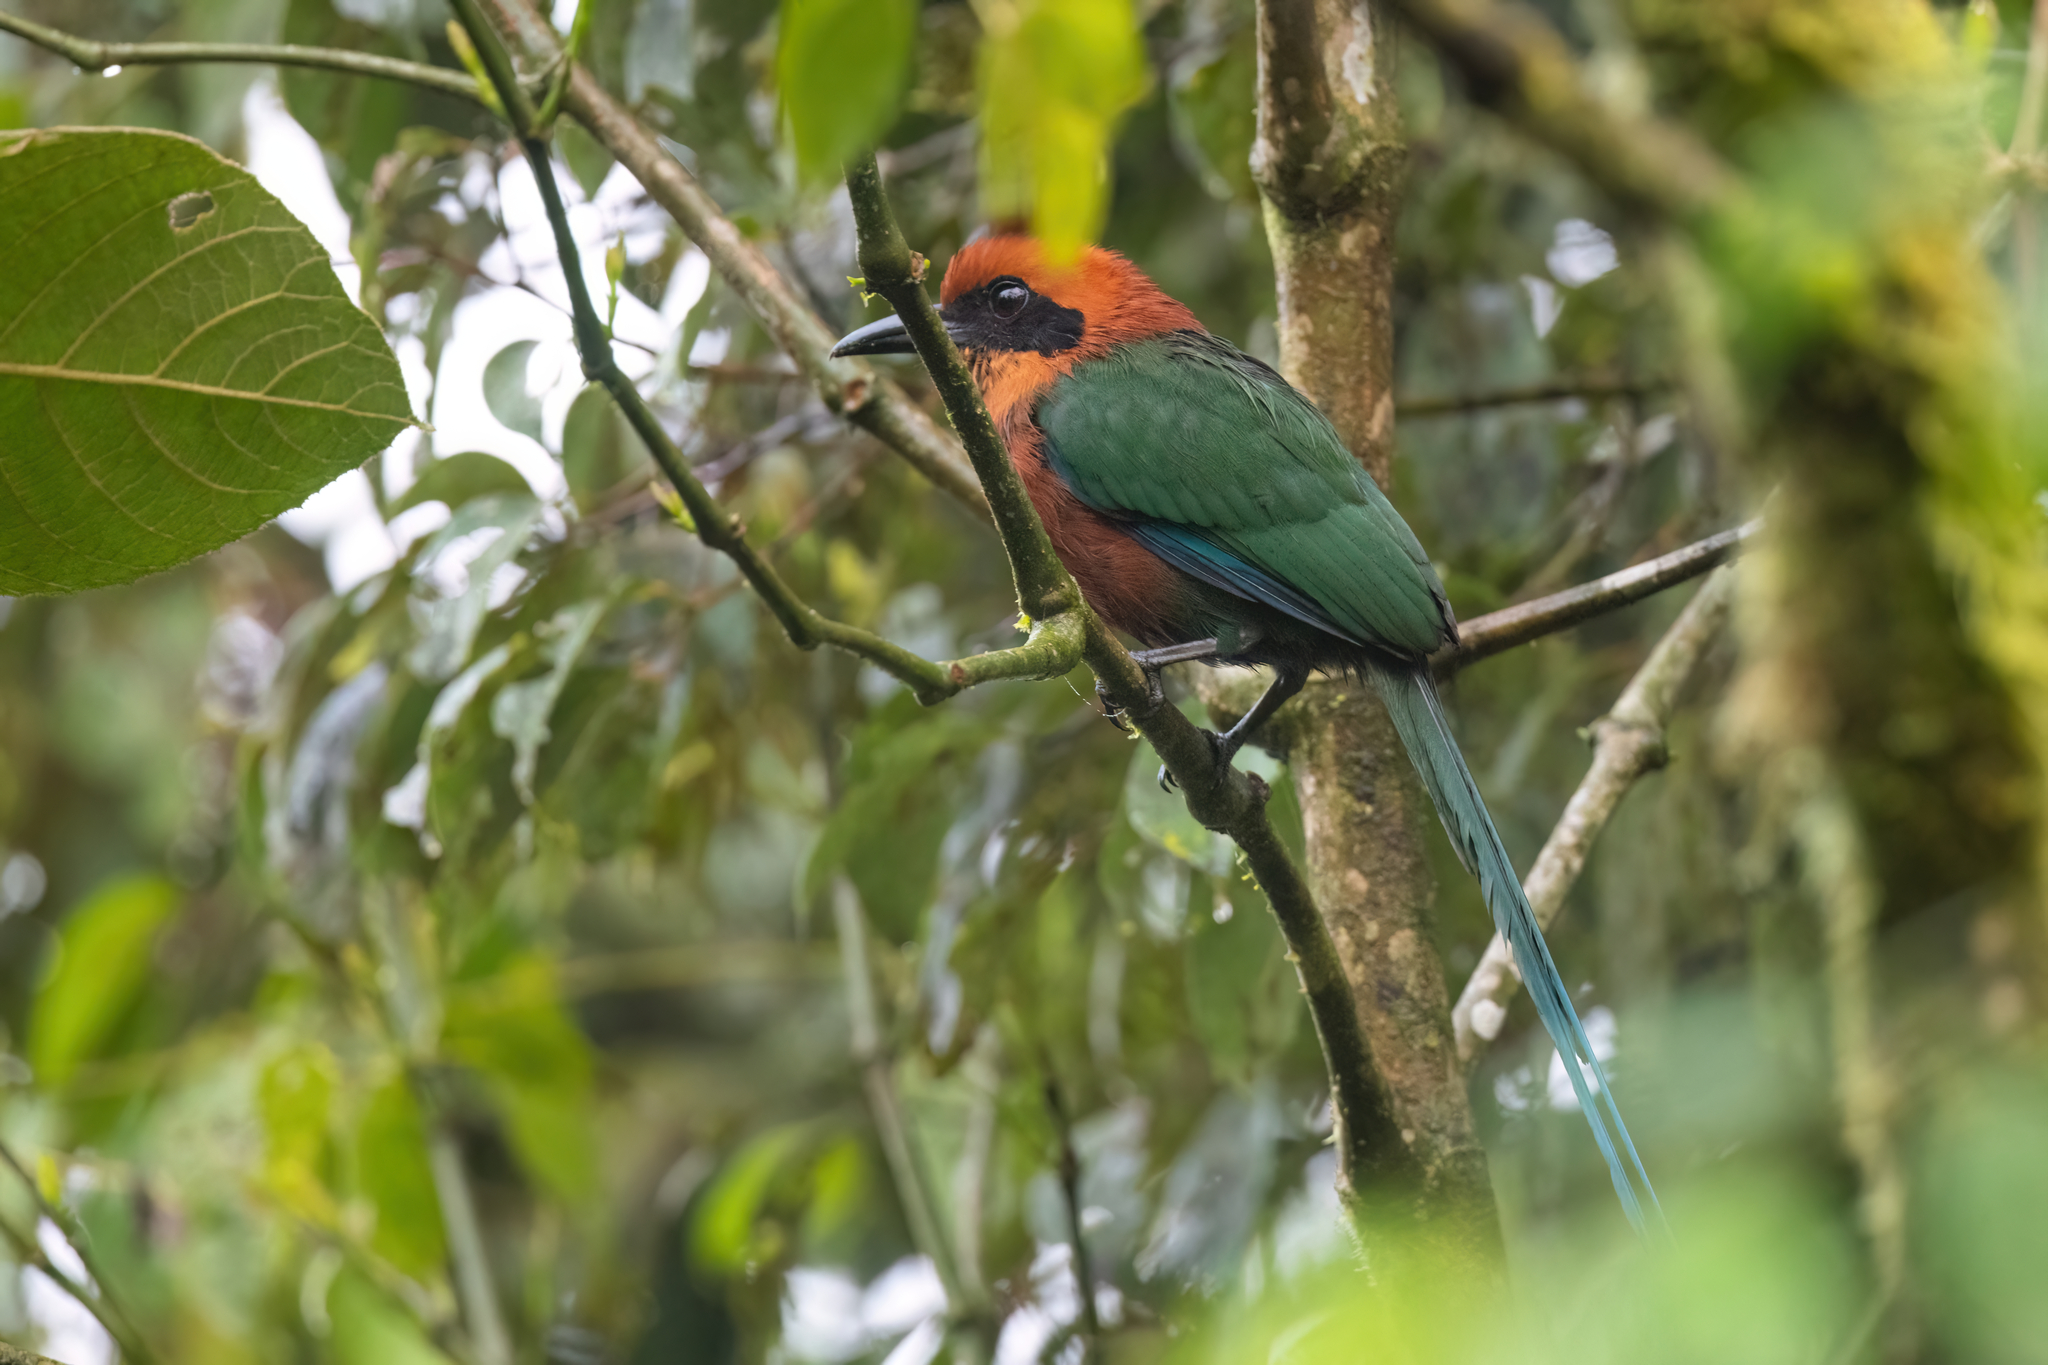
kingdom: Animalia
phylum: Chordata
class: Aves
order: Coraciiformes
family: Momotidae
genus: Baryphthengus
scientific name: Baryphthengus martii
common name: Rufous motmot
